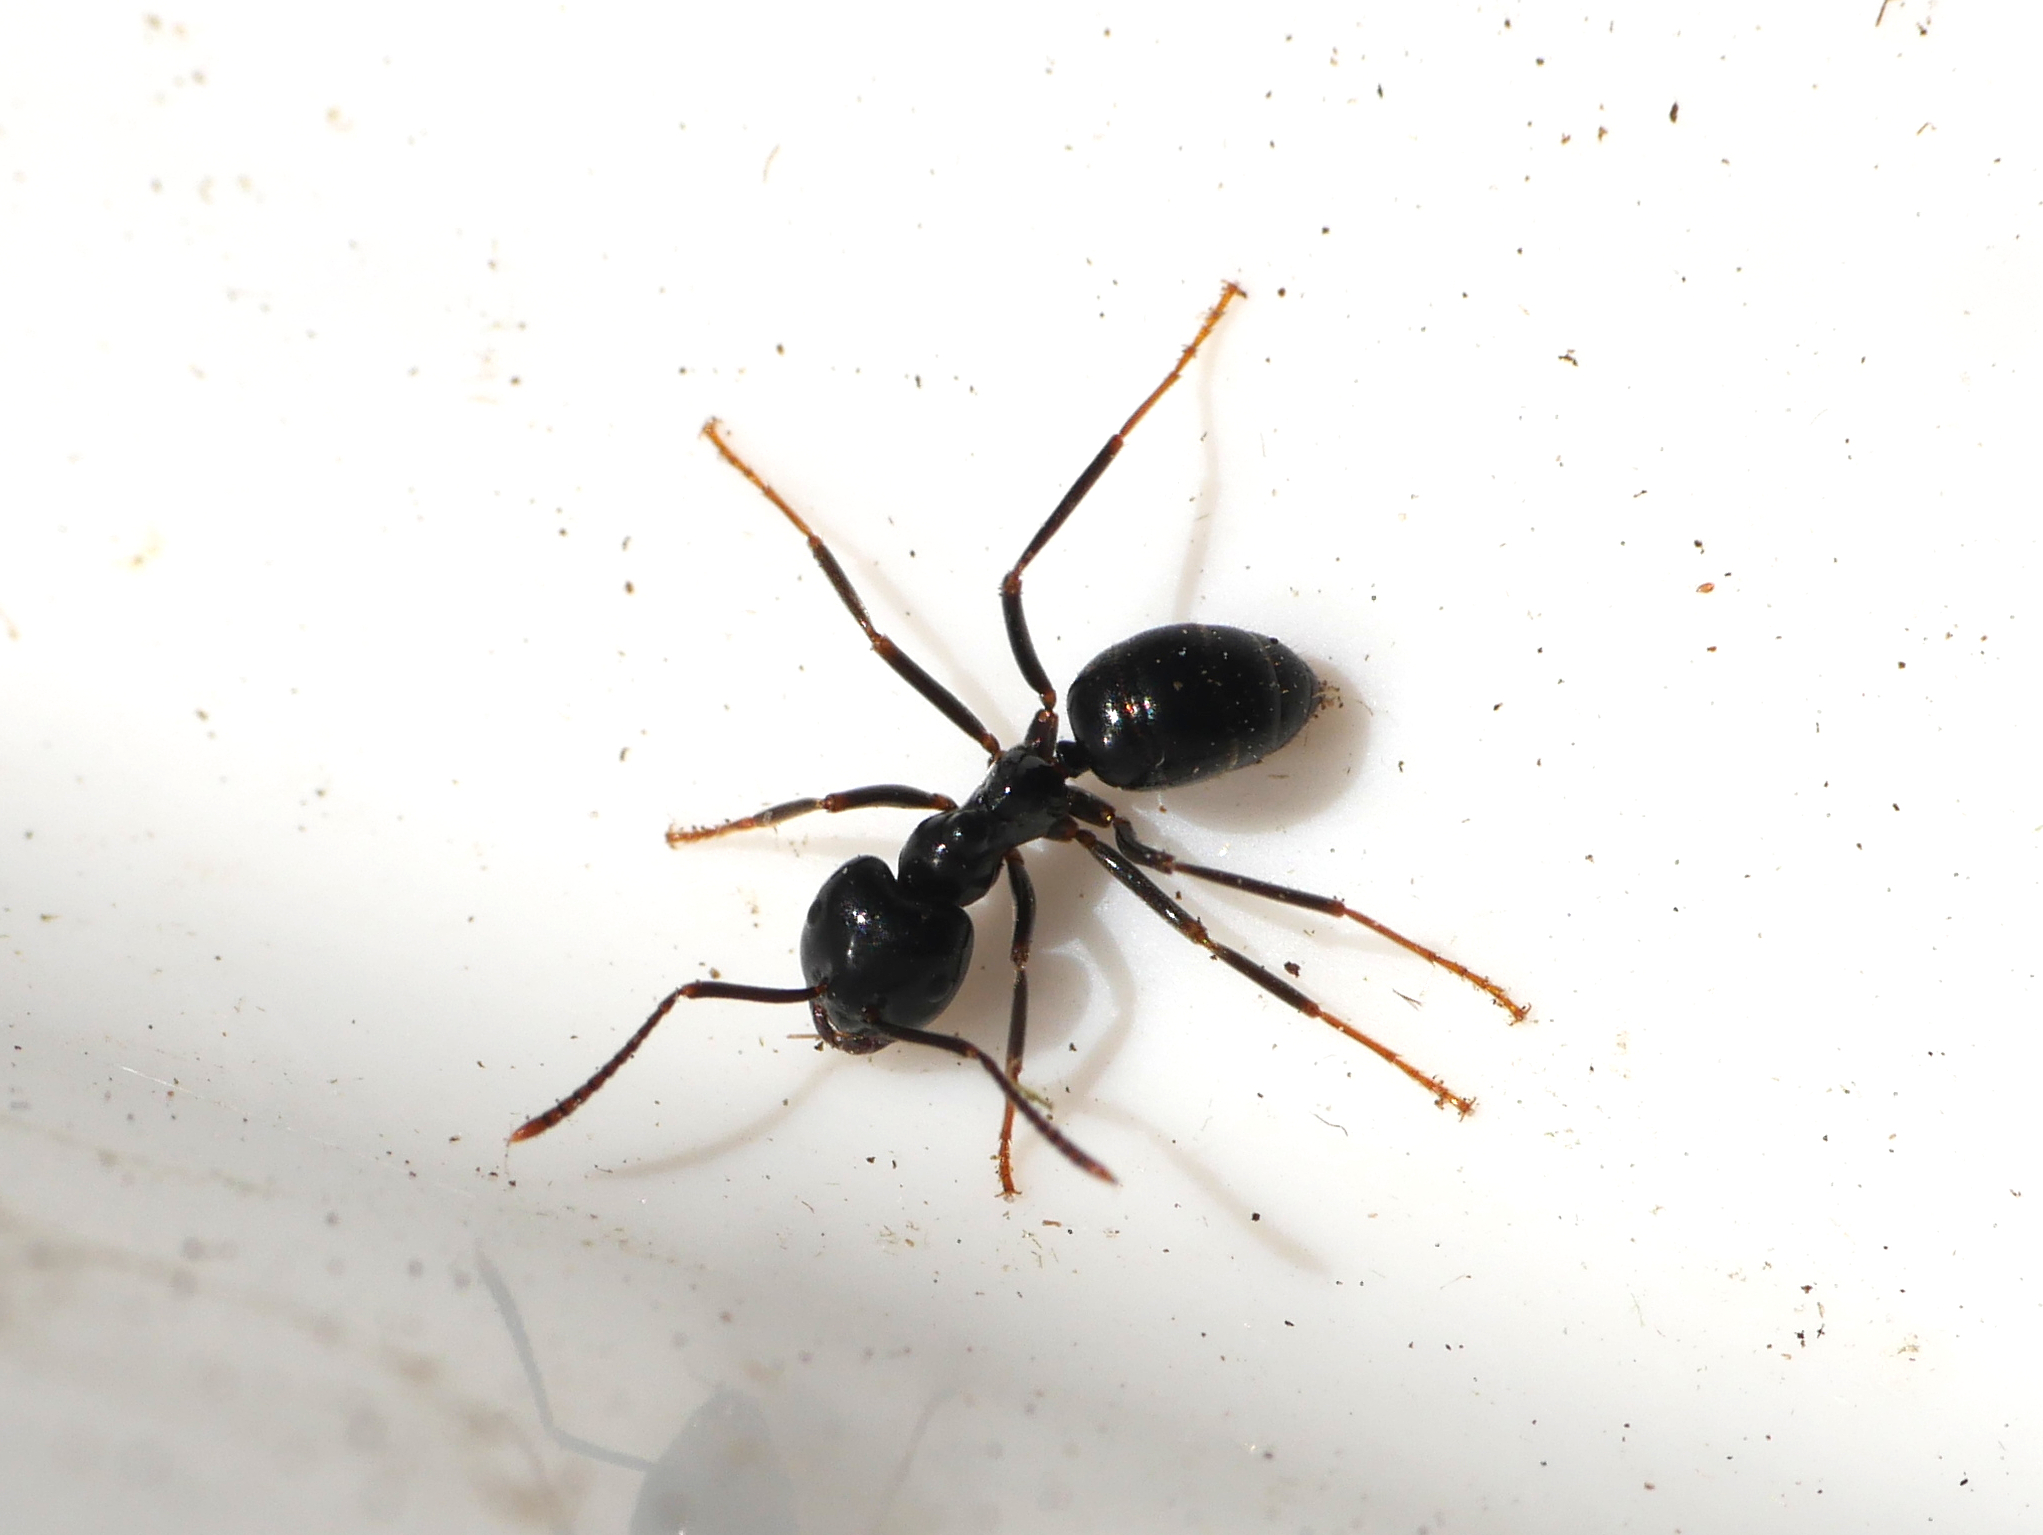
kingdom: Animalia
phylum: Arthropoda
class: Insecta
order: Hymenoptera
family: Formicidae
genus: Lasius
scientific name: Lasius fuliginosus
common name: Jet ant
